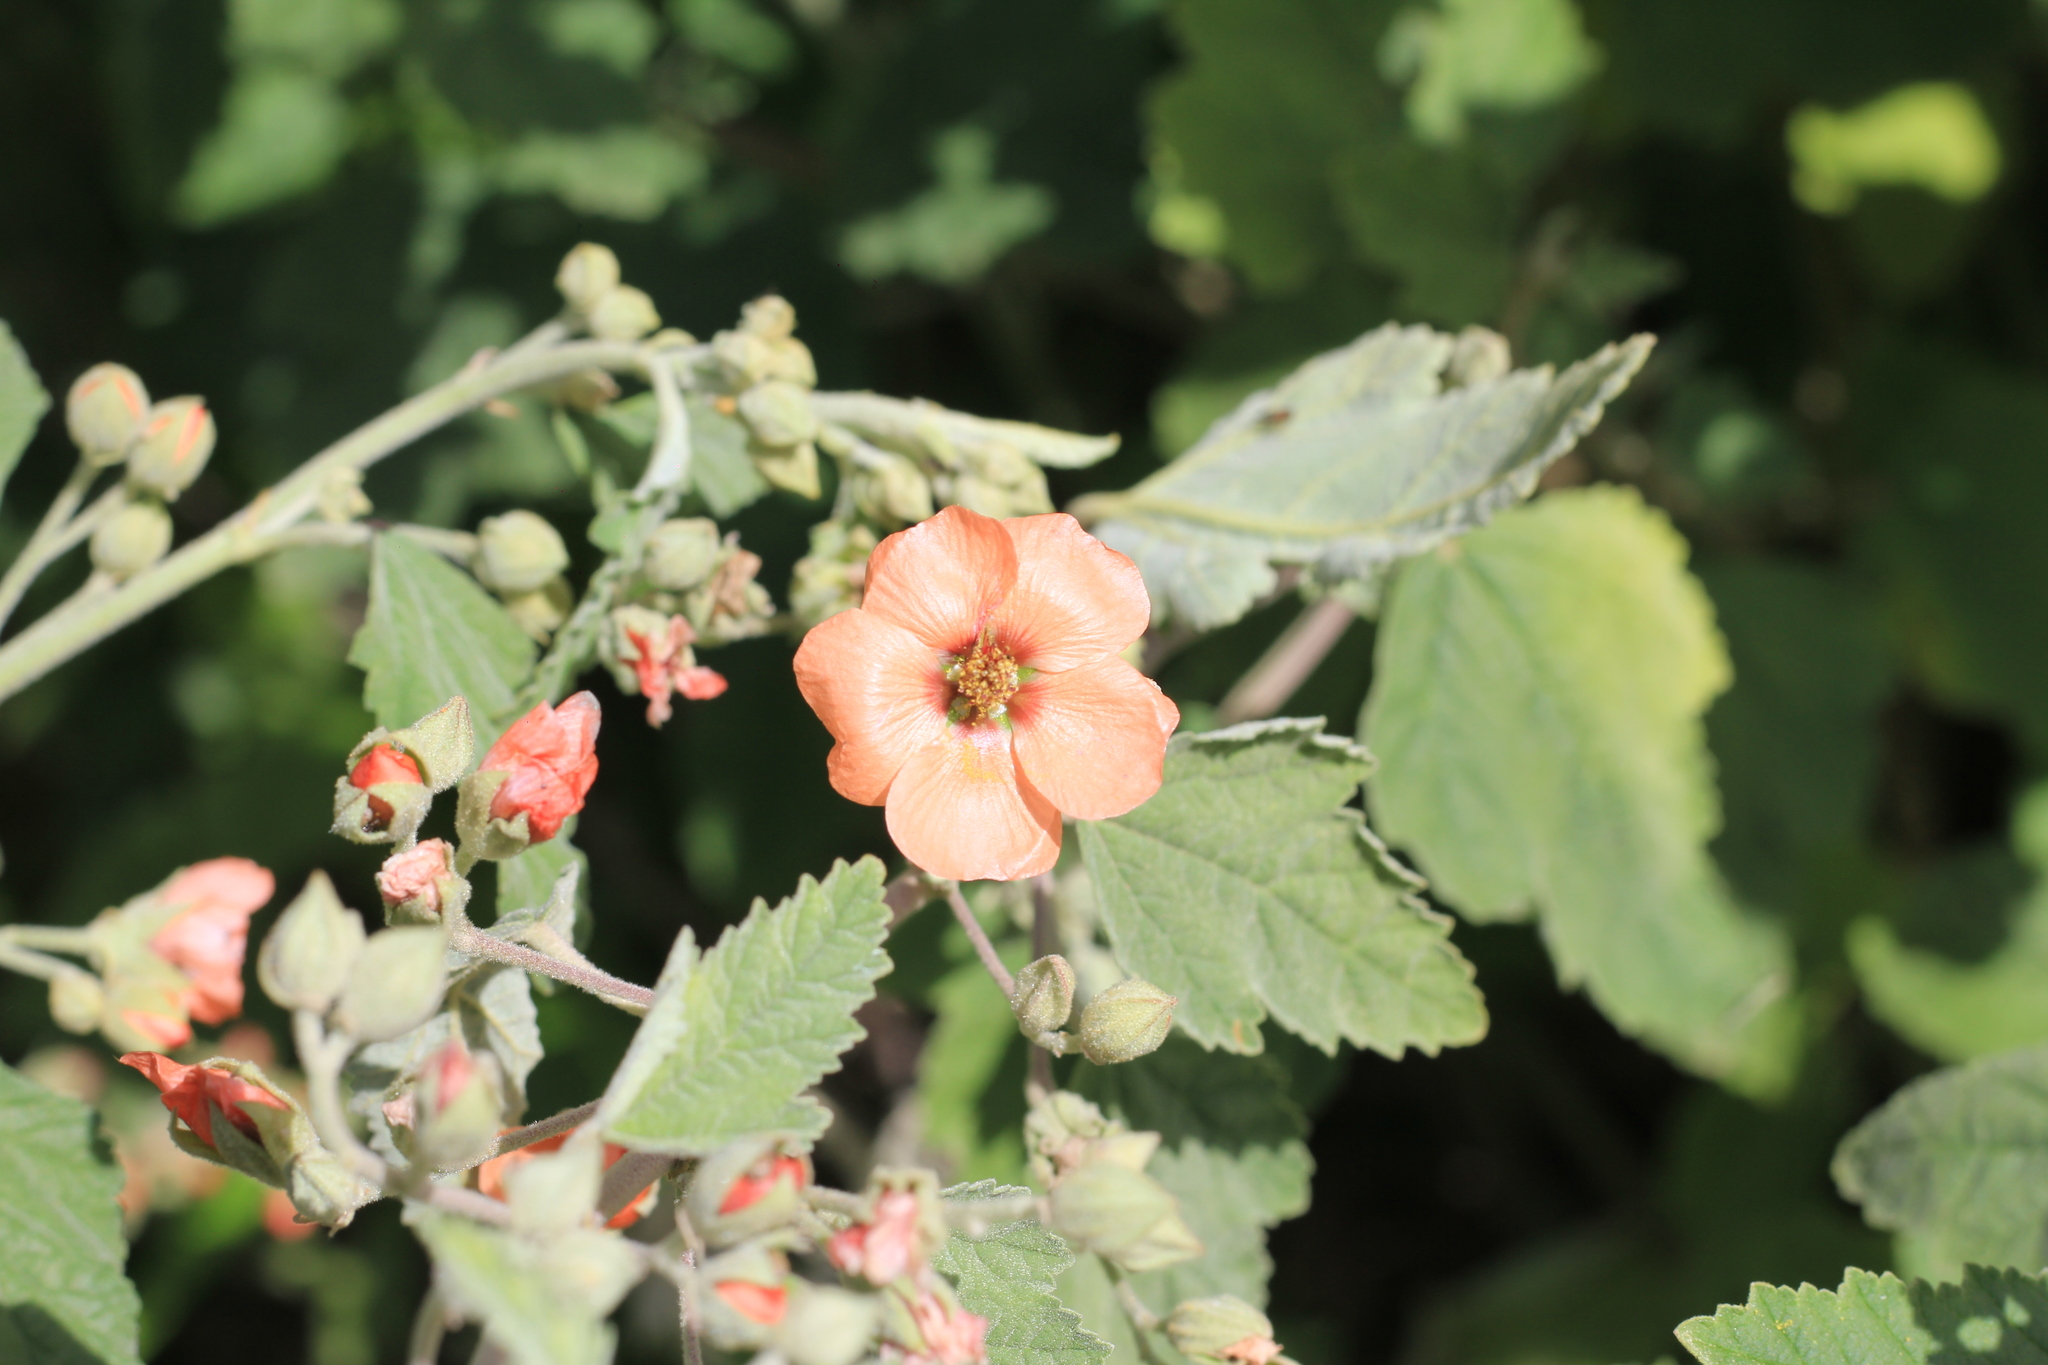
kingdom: Plantae
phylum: Tracheophyta
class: Magnoliopsida
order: Malvales
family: Malvaceae
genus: Sphaeralcea
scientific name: Sphaeralcea bonariensis
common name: Latin globemallow
